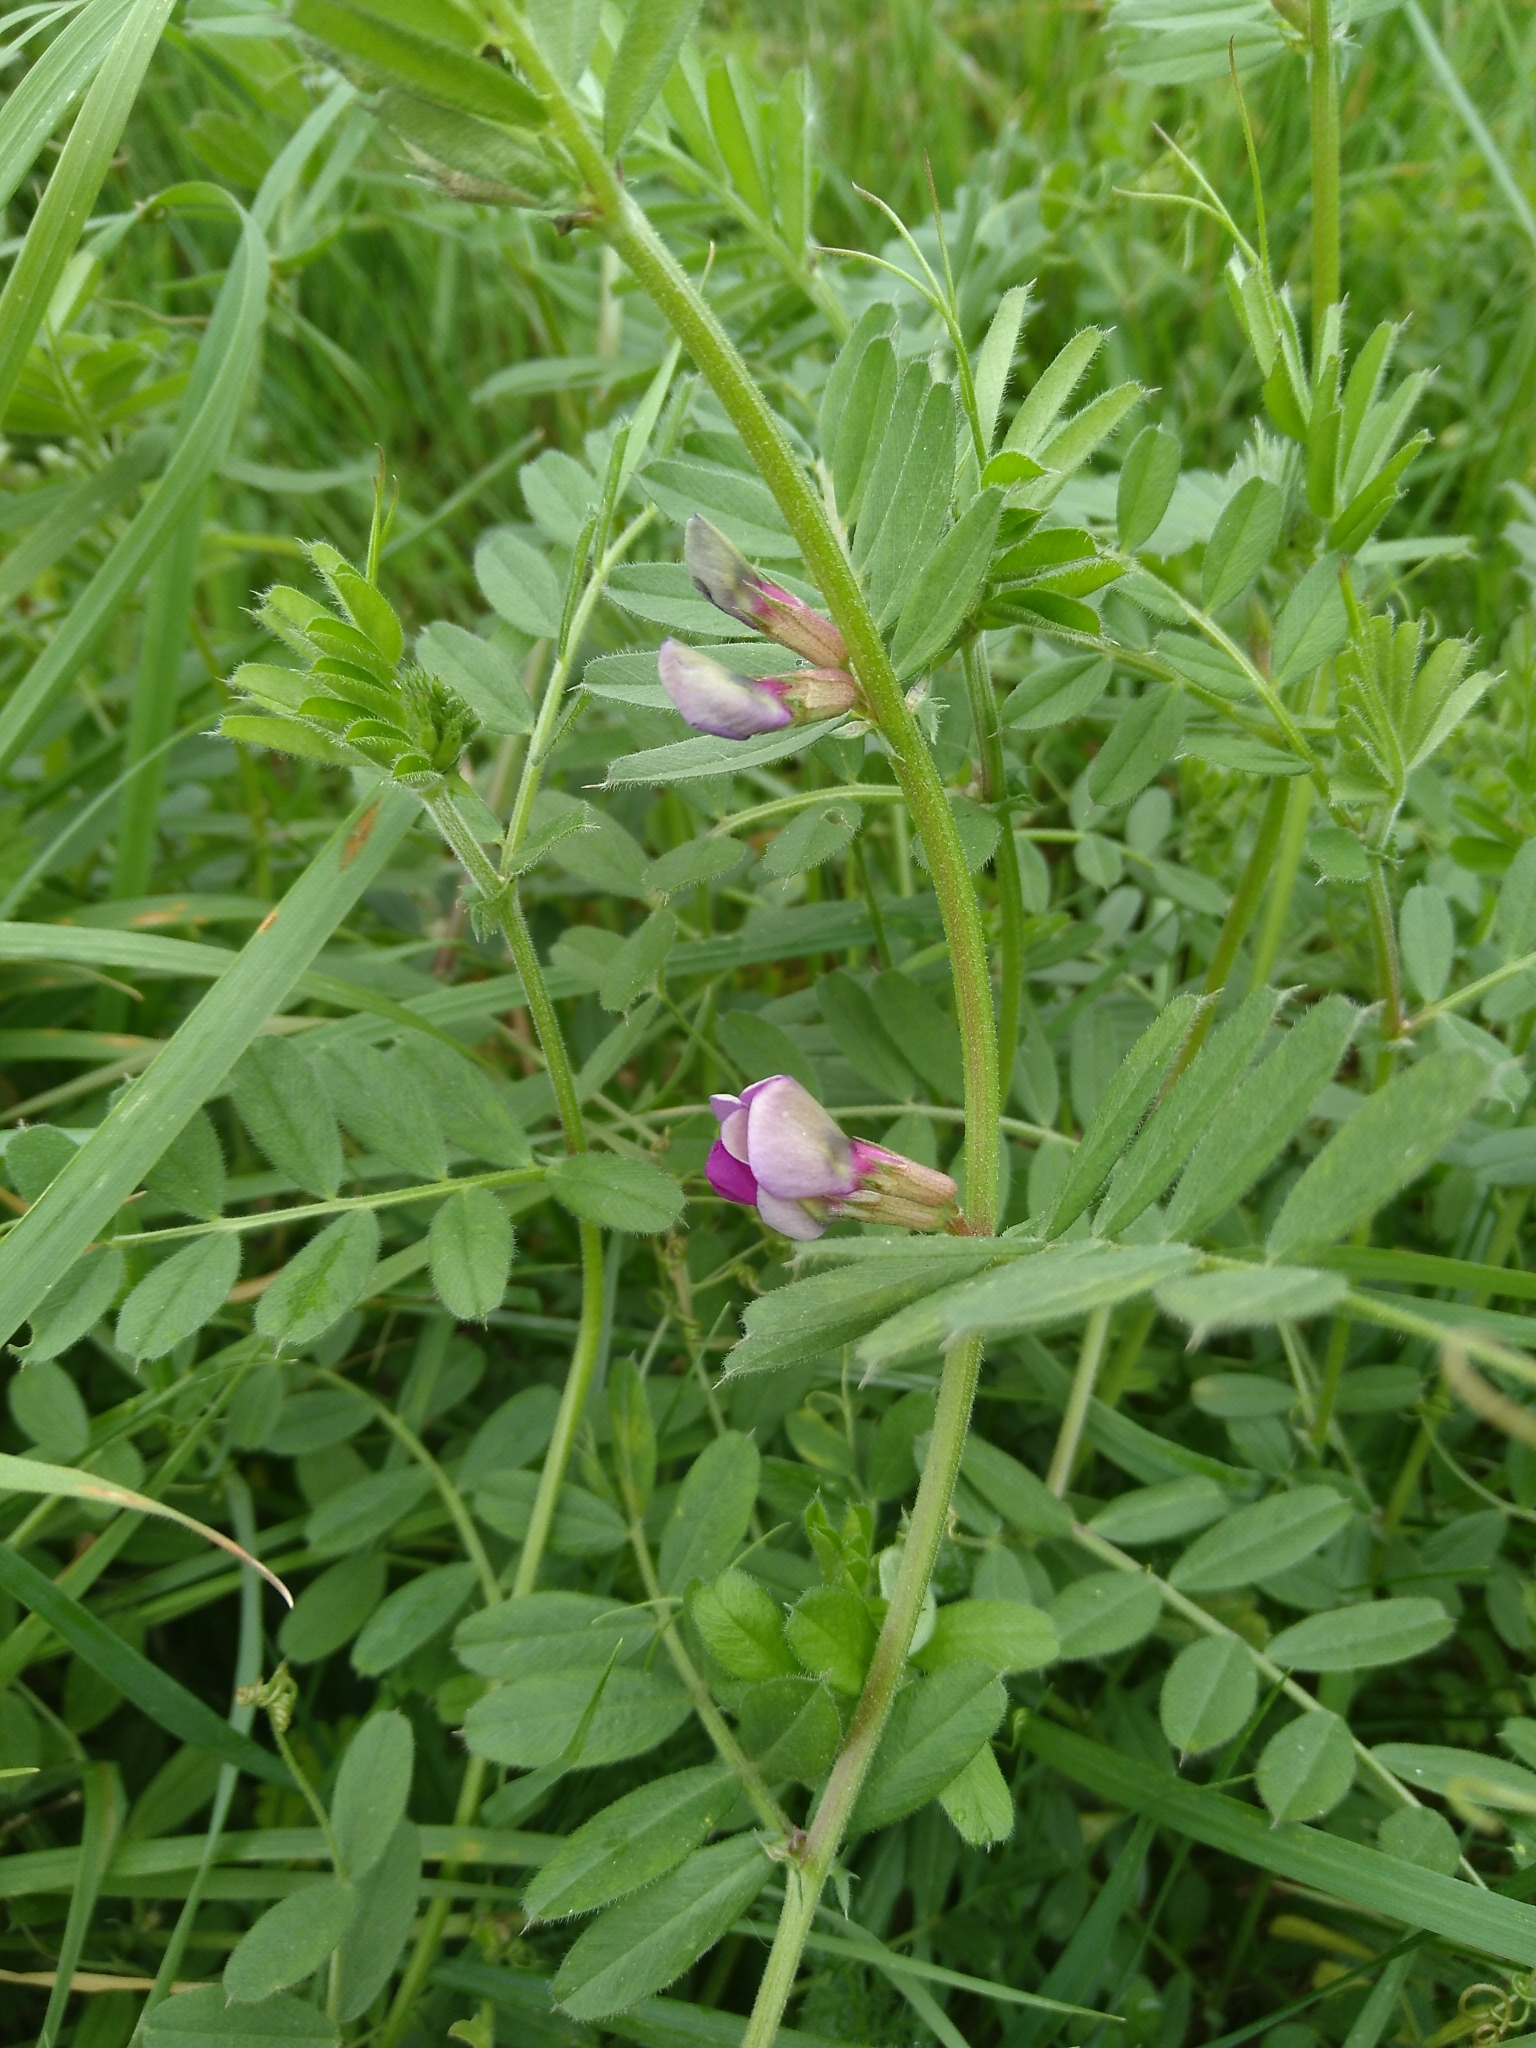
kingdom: Plantae
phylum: Tracheophyta
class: Magnoliopsida
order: Fabales
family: Fabaceae
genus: Vicia
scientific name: Vicia sativa
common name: Garden vetch
